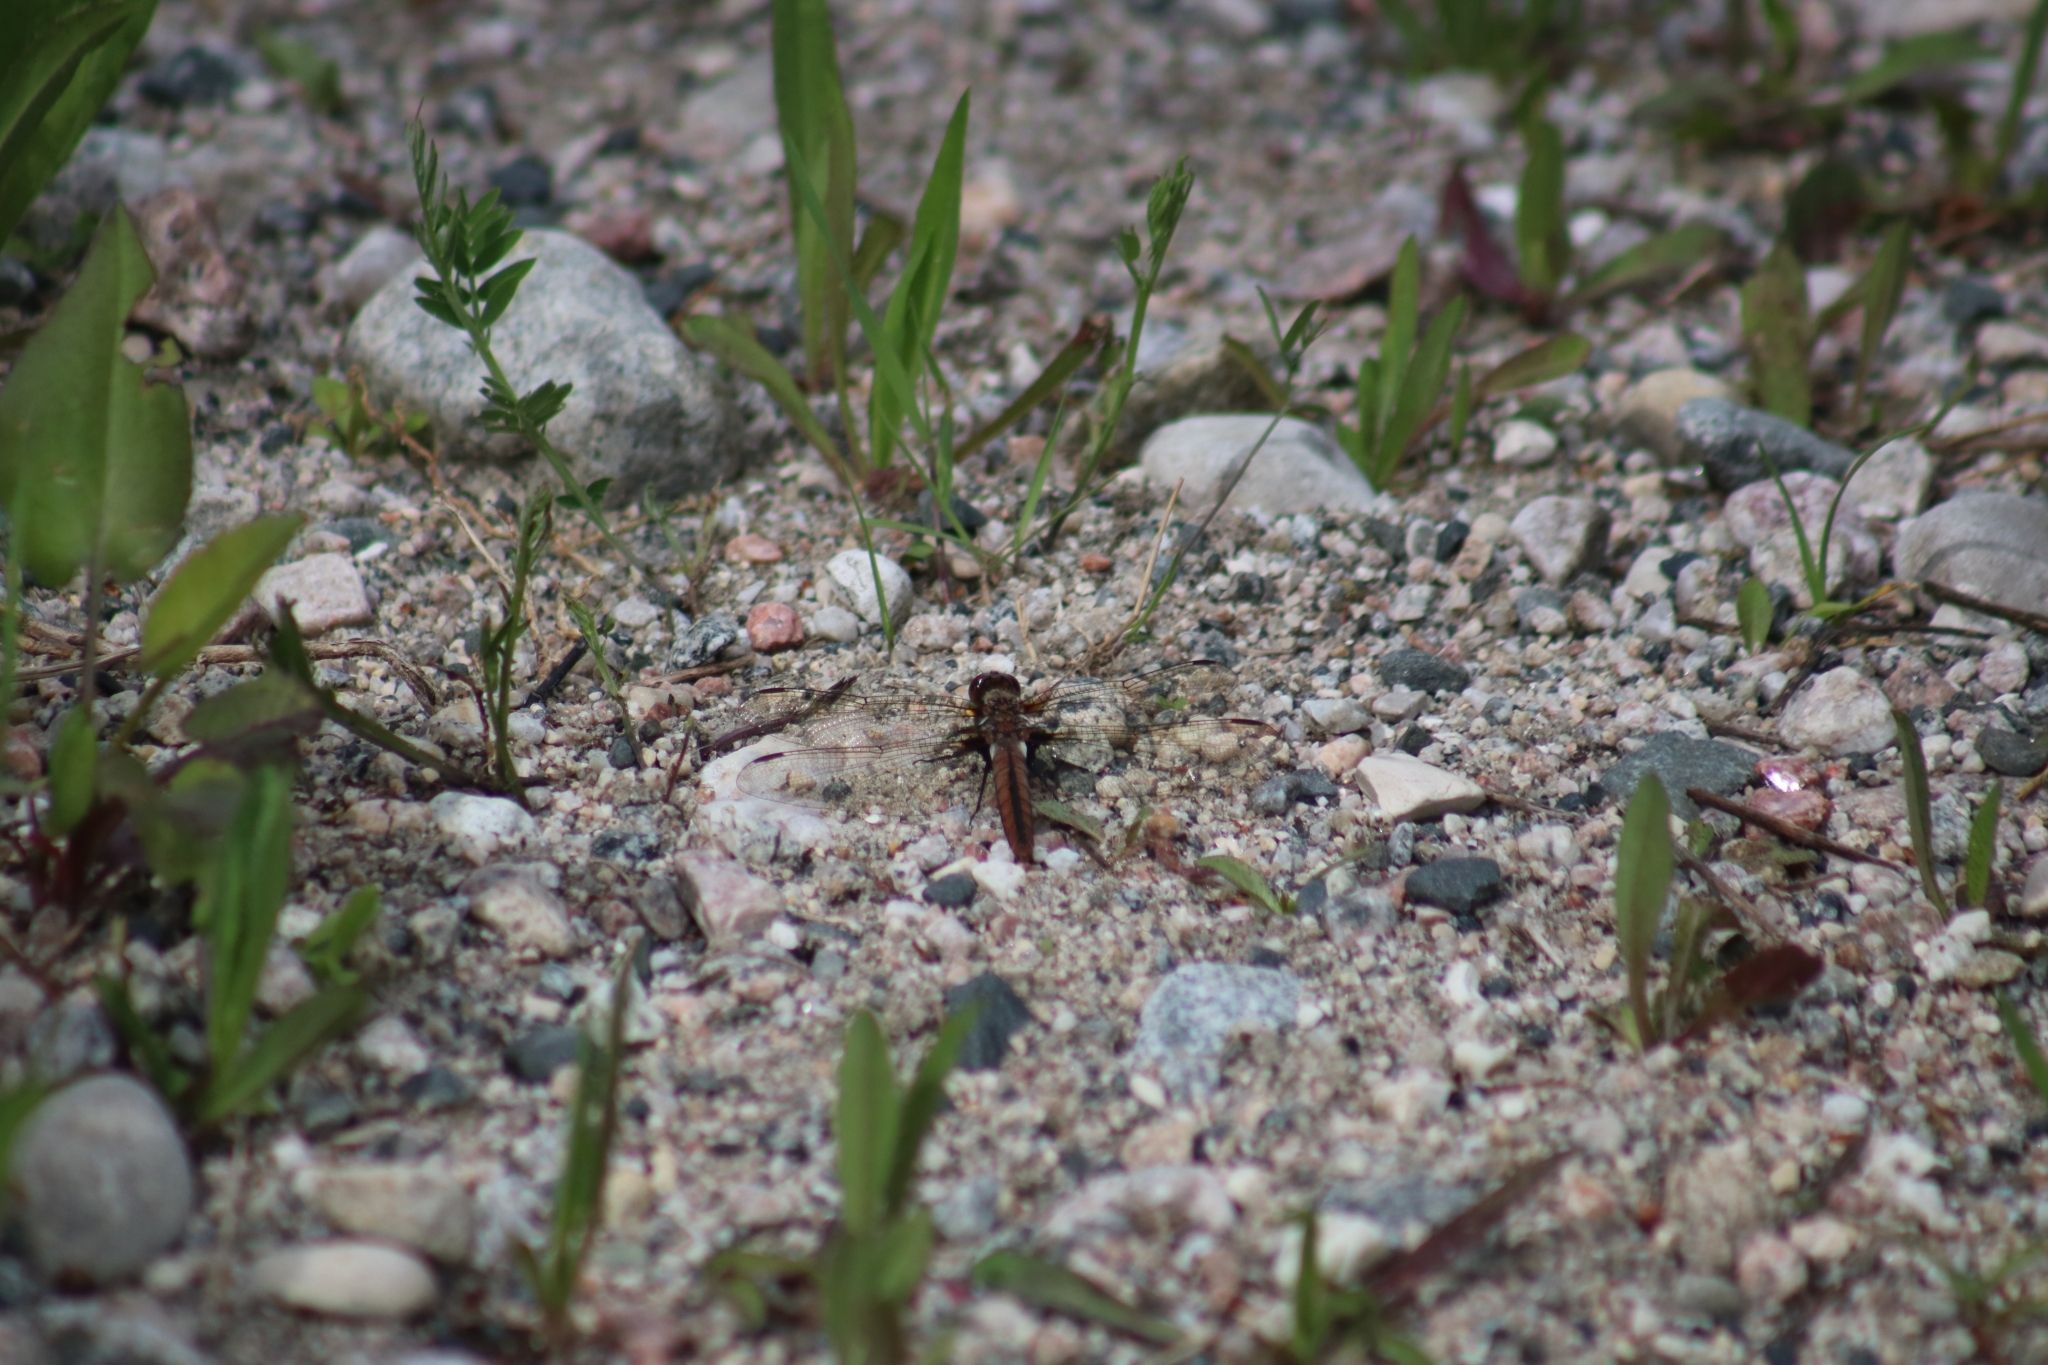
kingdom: Animalia
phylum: Arthropoda
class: Insecta
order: Odonata
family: Libellulidae
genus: Ladona
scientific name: Ladona julia
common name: Chalk-fronted corporal
